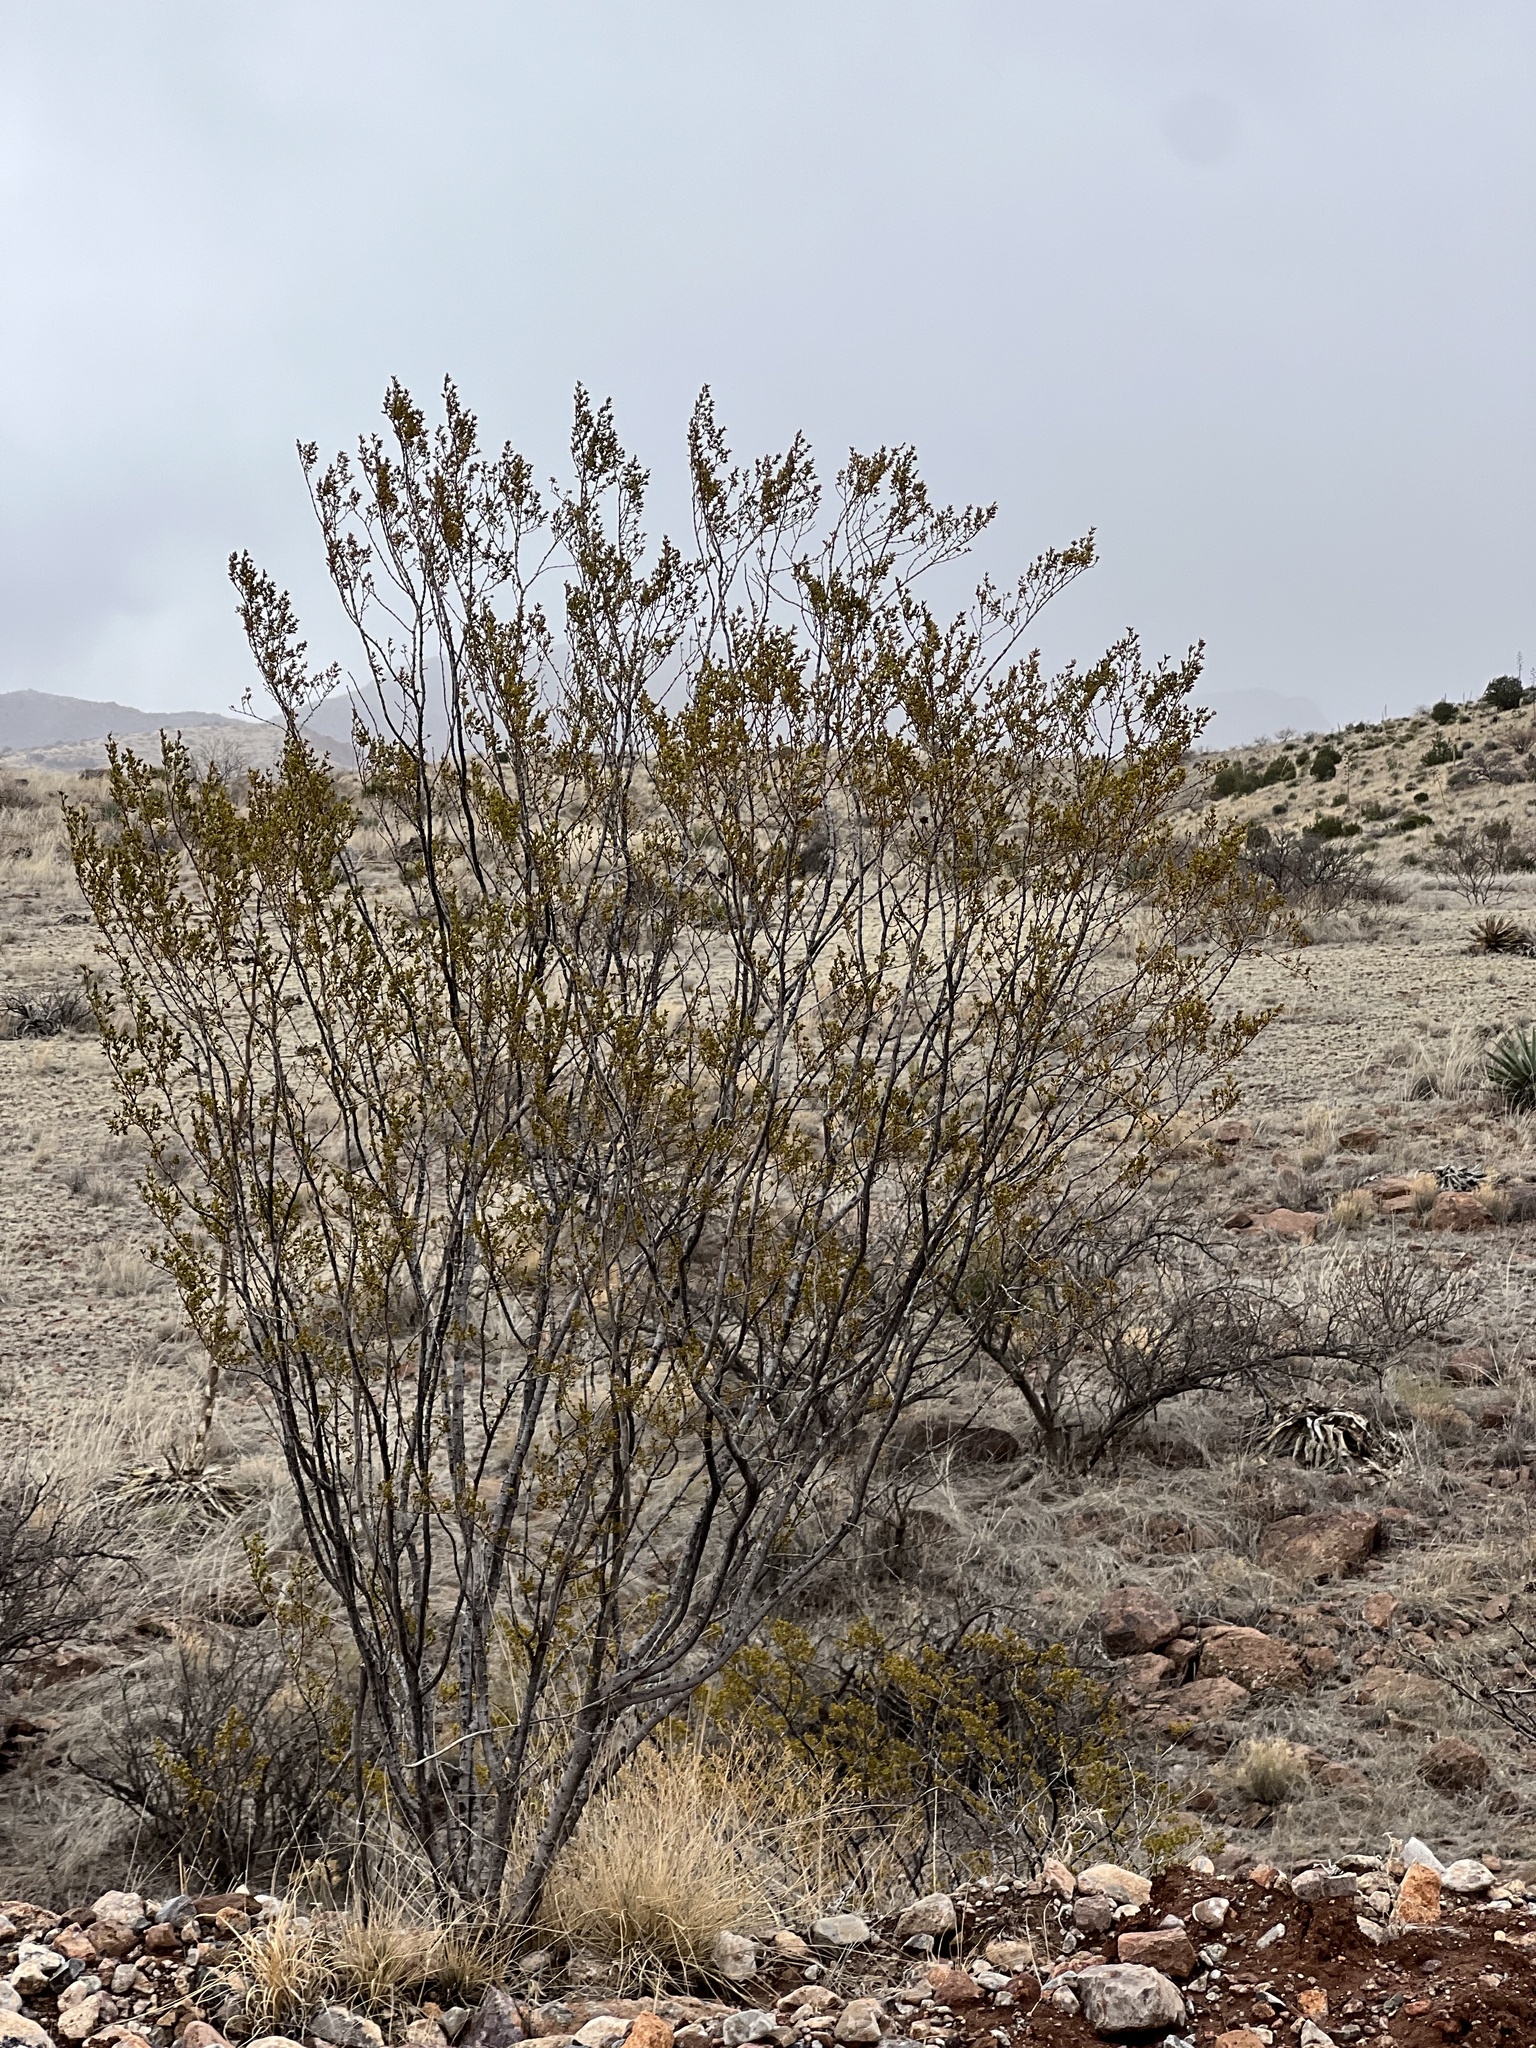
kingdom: Plantae
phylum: Tracheophyta
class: Magnoliopsida
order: Zygophyllales
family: Zygophyllaceae
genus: Larrea
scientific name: Larrea tridentata
